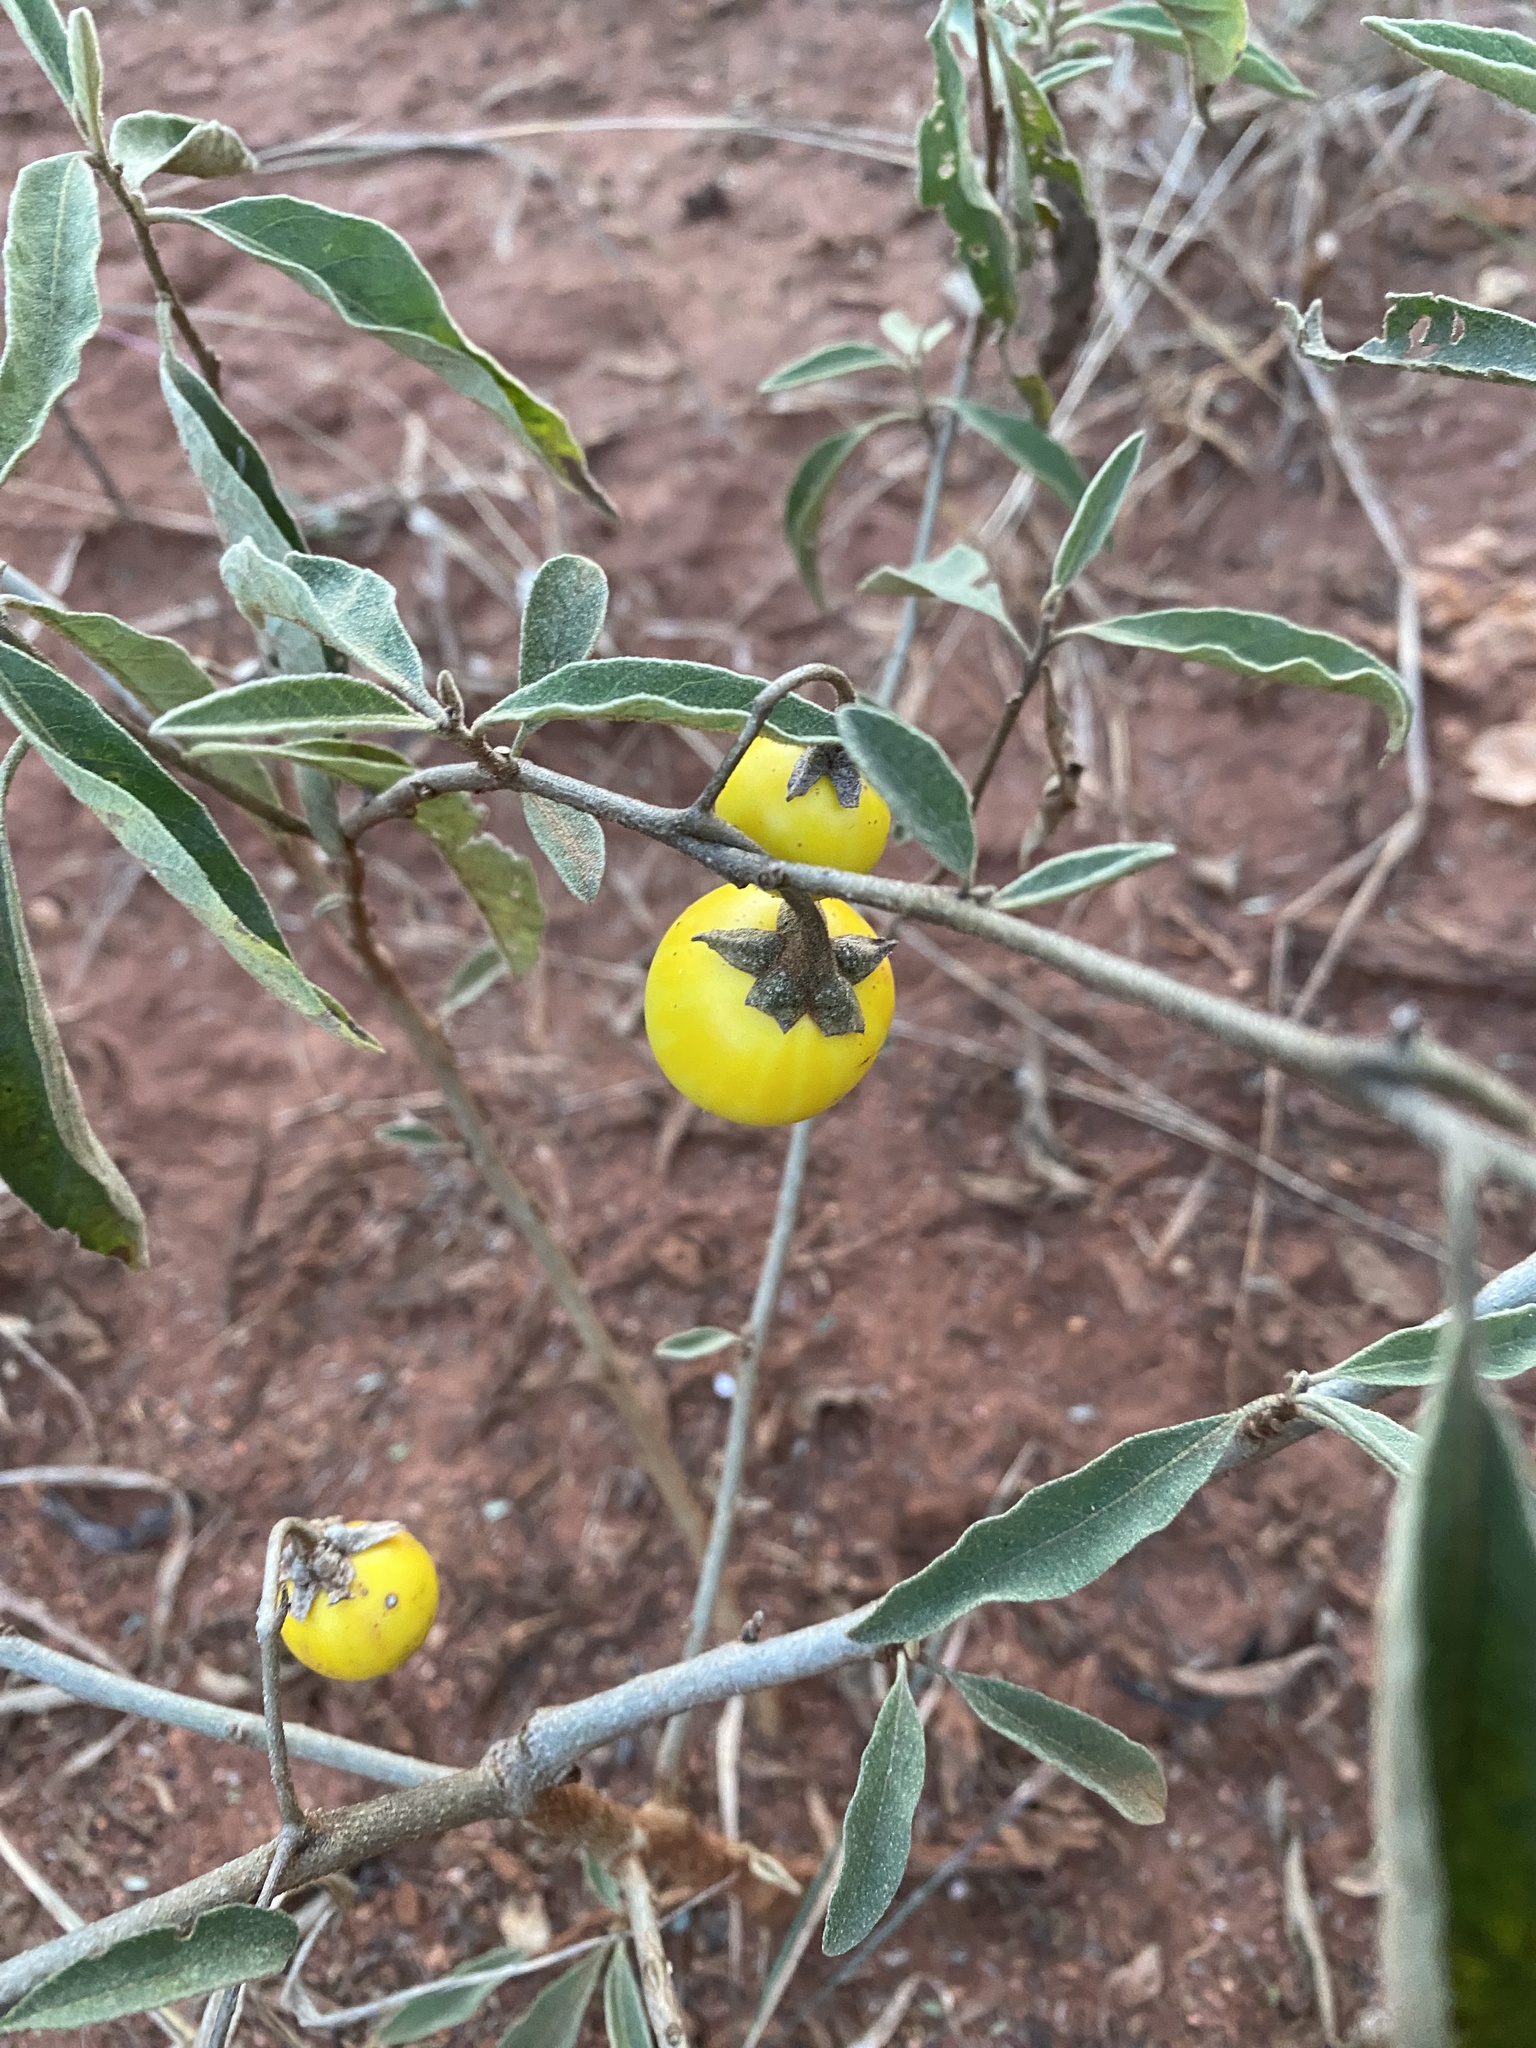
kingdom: Plantae
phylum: Tracheophyta
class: Magnoliopsida
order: Solanales
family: Solanaceae
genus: Solanum
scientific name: Solanum campylacanthum
